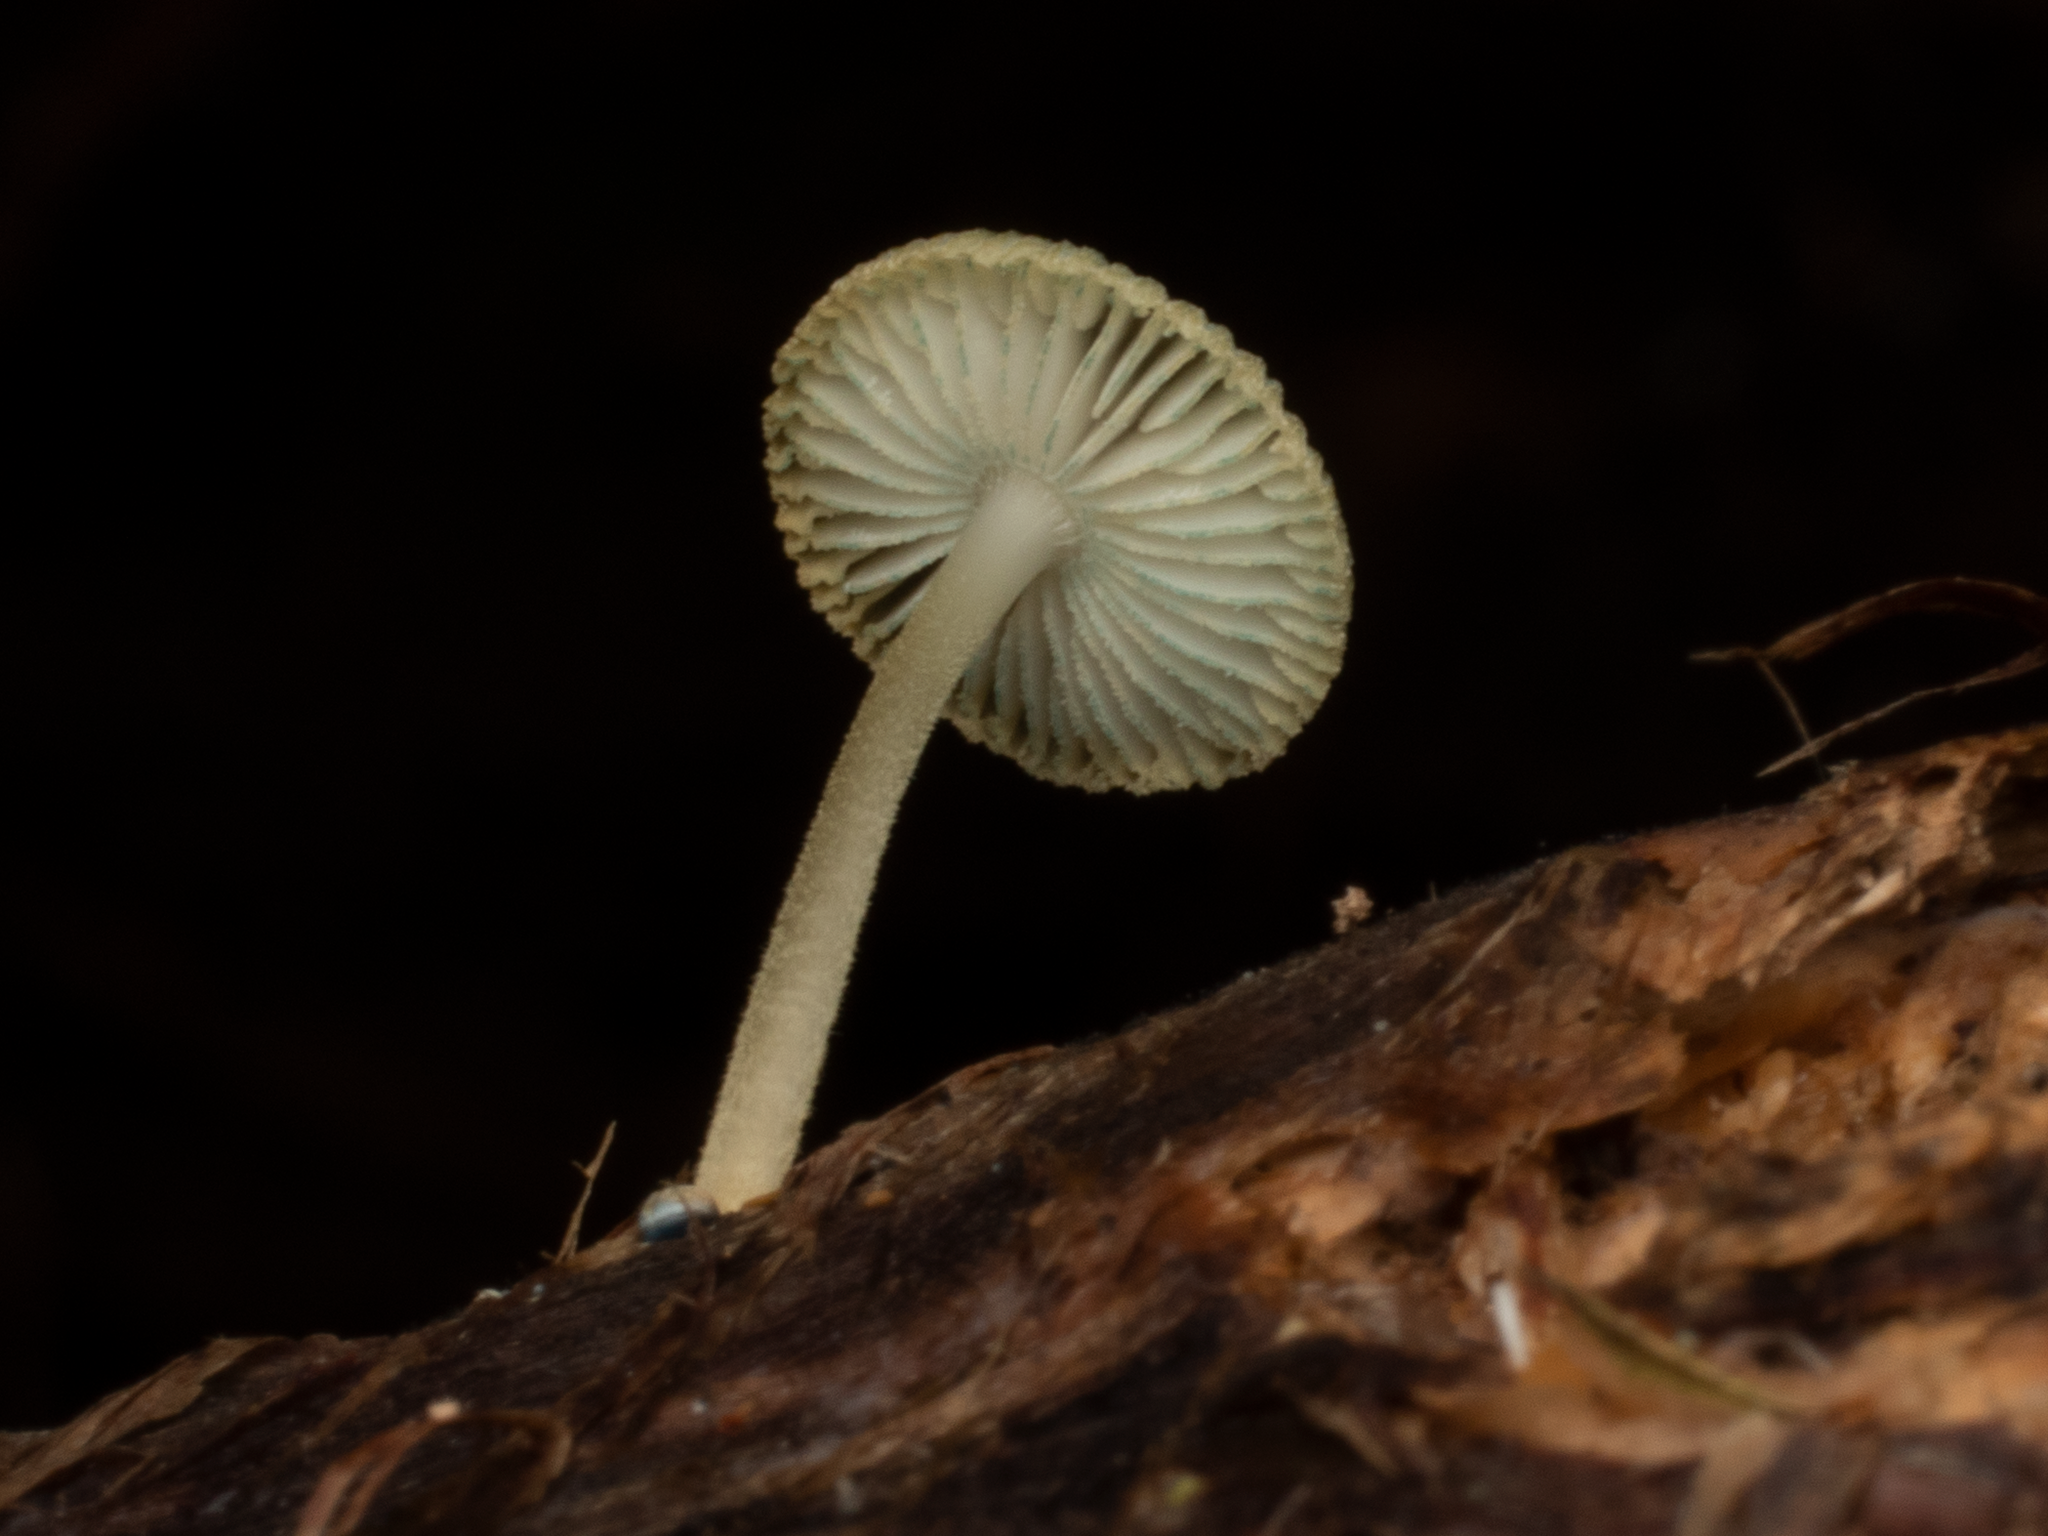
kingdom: Fungi
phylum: Basidiomycota
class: Agaricomycetes
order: Agaricales
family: Mycenaceae
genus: Mycena
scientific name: Mycena interrupta
